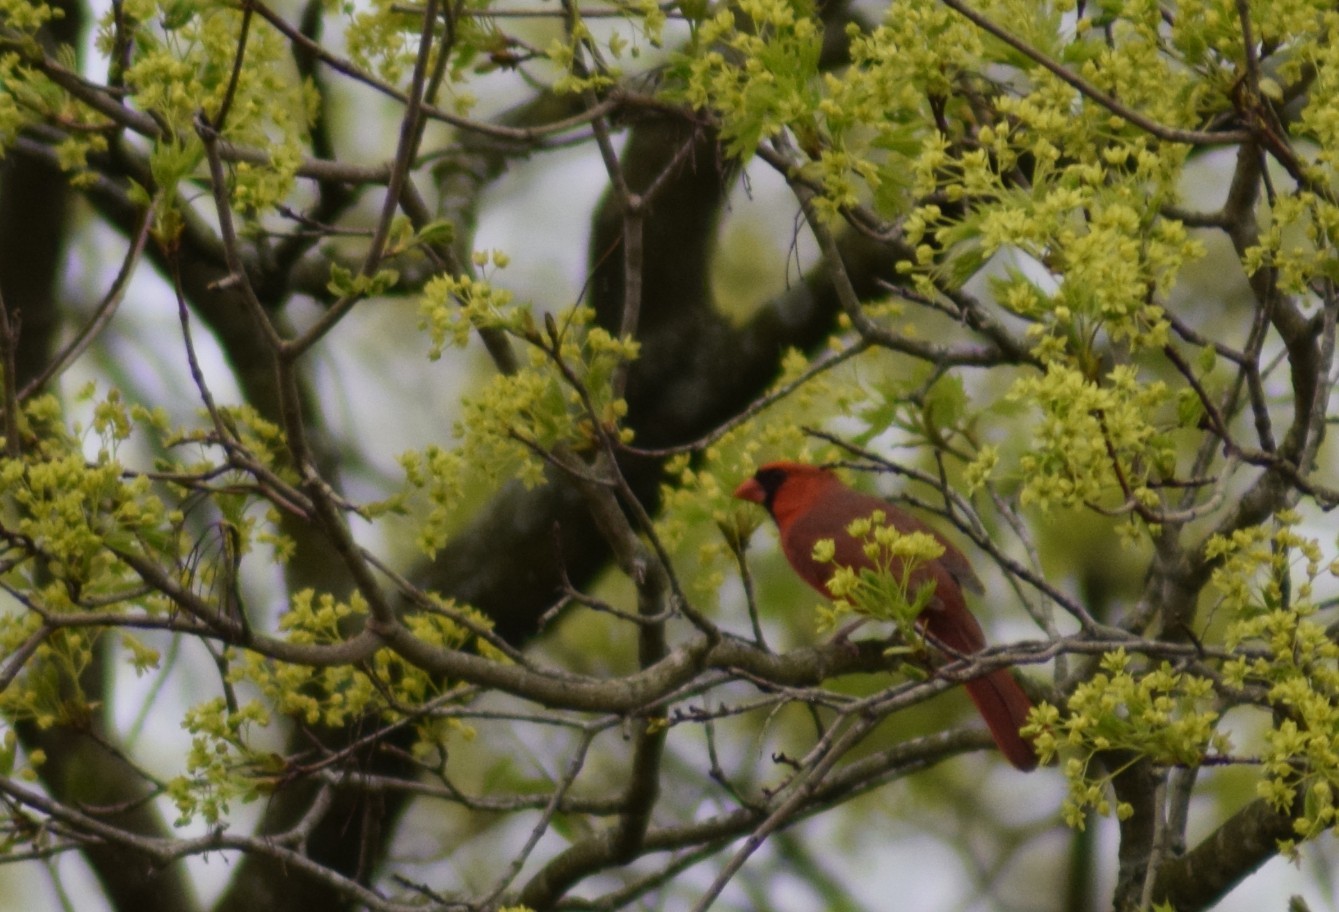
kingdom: Animalia
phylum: Chordata
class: Aves
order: Passeriformes
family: Cardinalidae
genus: Cardinalis
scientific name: Cardinalis cardinalis
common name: Northern cardinal
